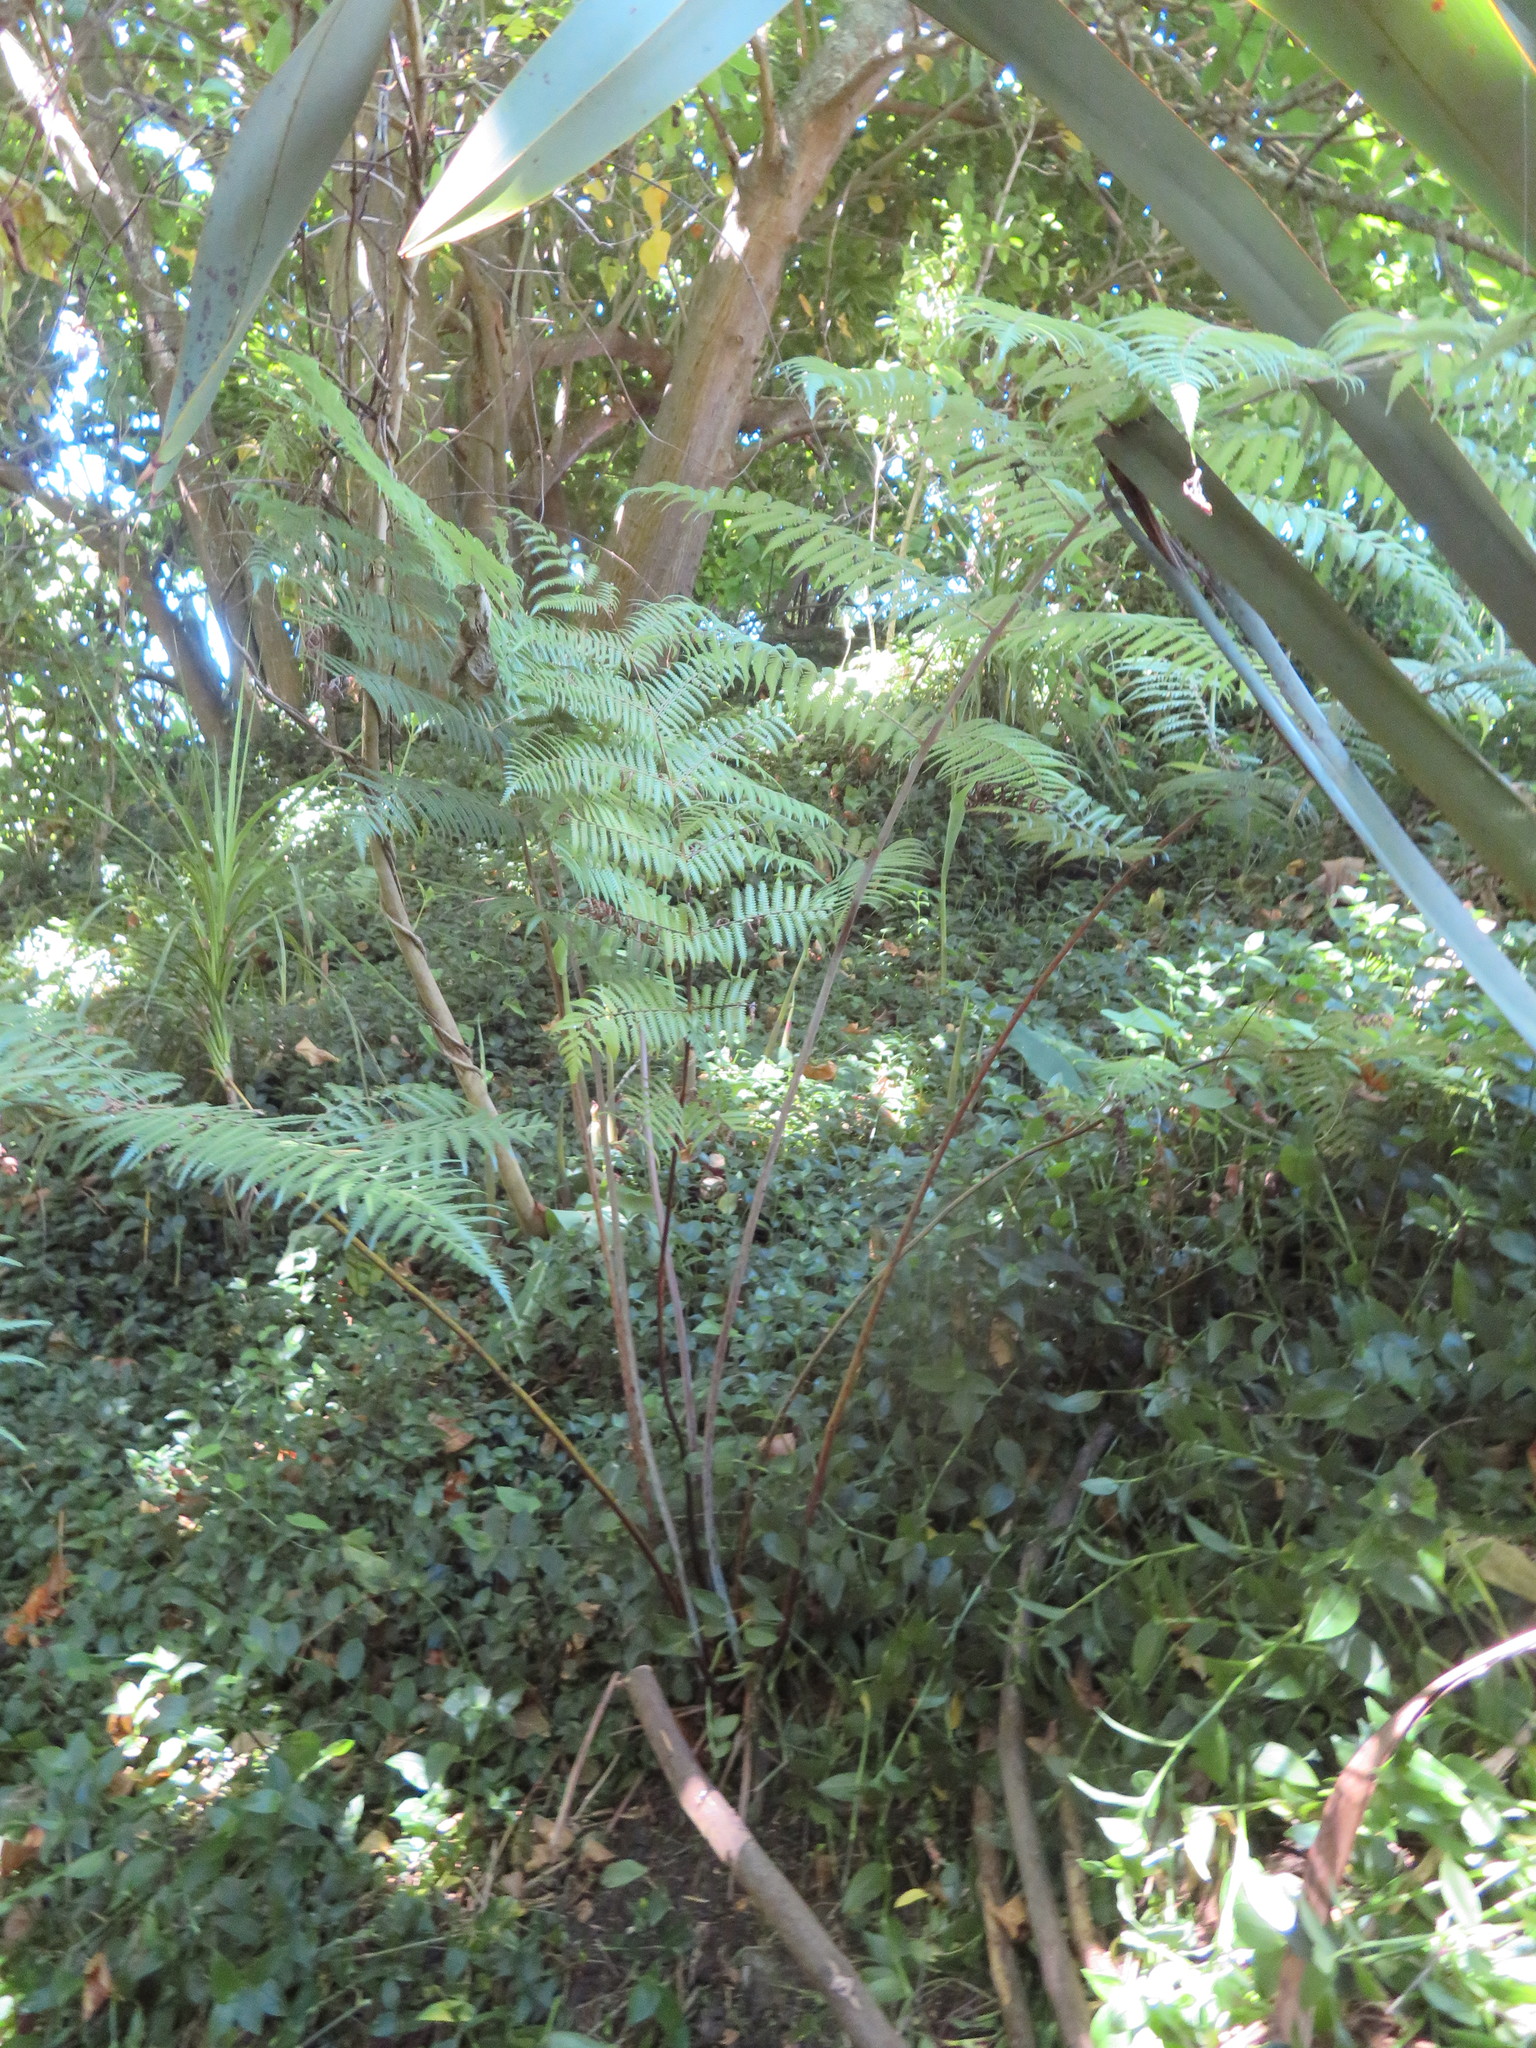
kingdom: Plantae
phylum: Tracheophyta
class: Polypodiopsida
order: Cyatheales
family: Cyatheaceae
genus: Alsophila
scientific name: Alsophila dealbata
